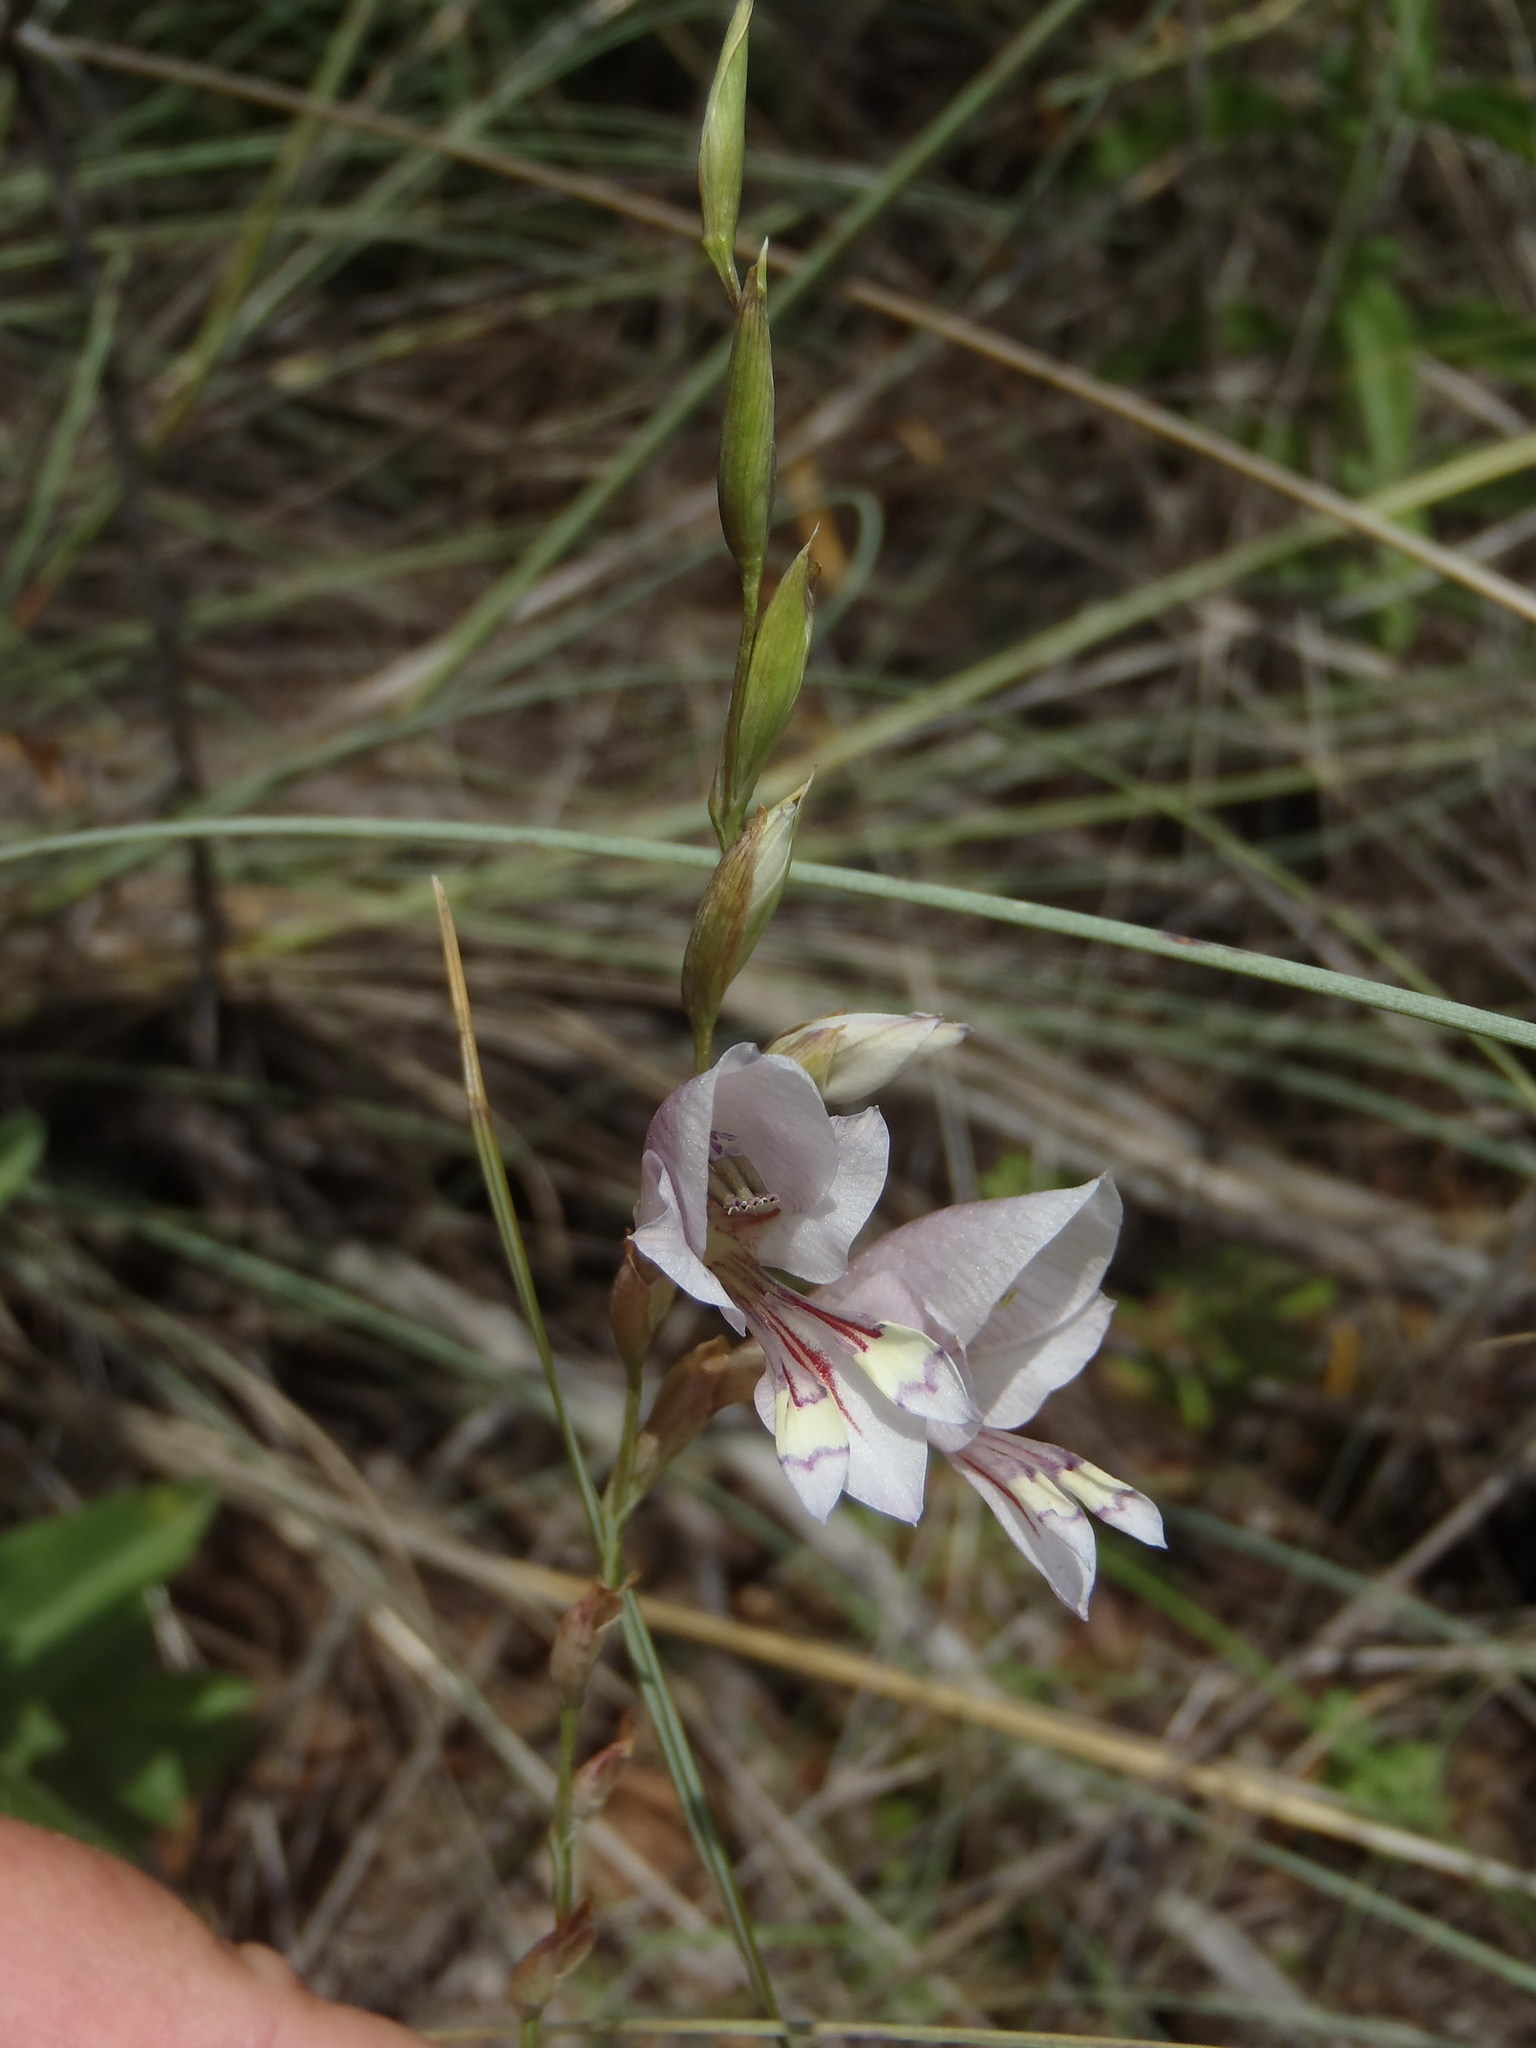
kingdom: Plantae
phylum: Tracheophyta
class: Liliopsida
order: Asparagales
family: Iridaceae
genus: Gladiolus
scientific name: Gladiolus pretoriensis
